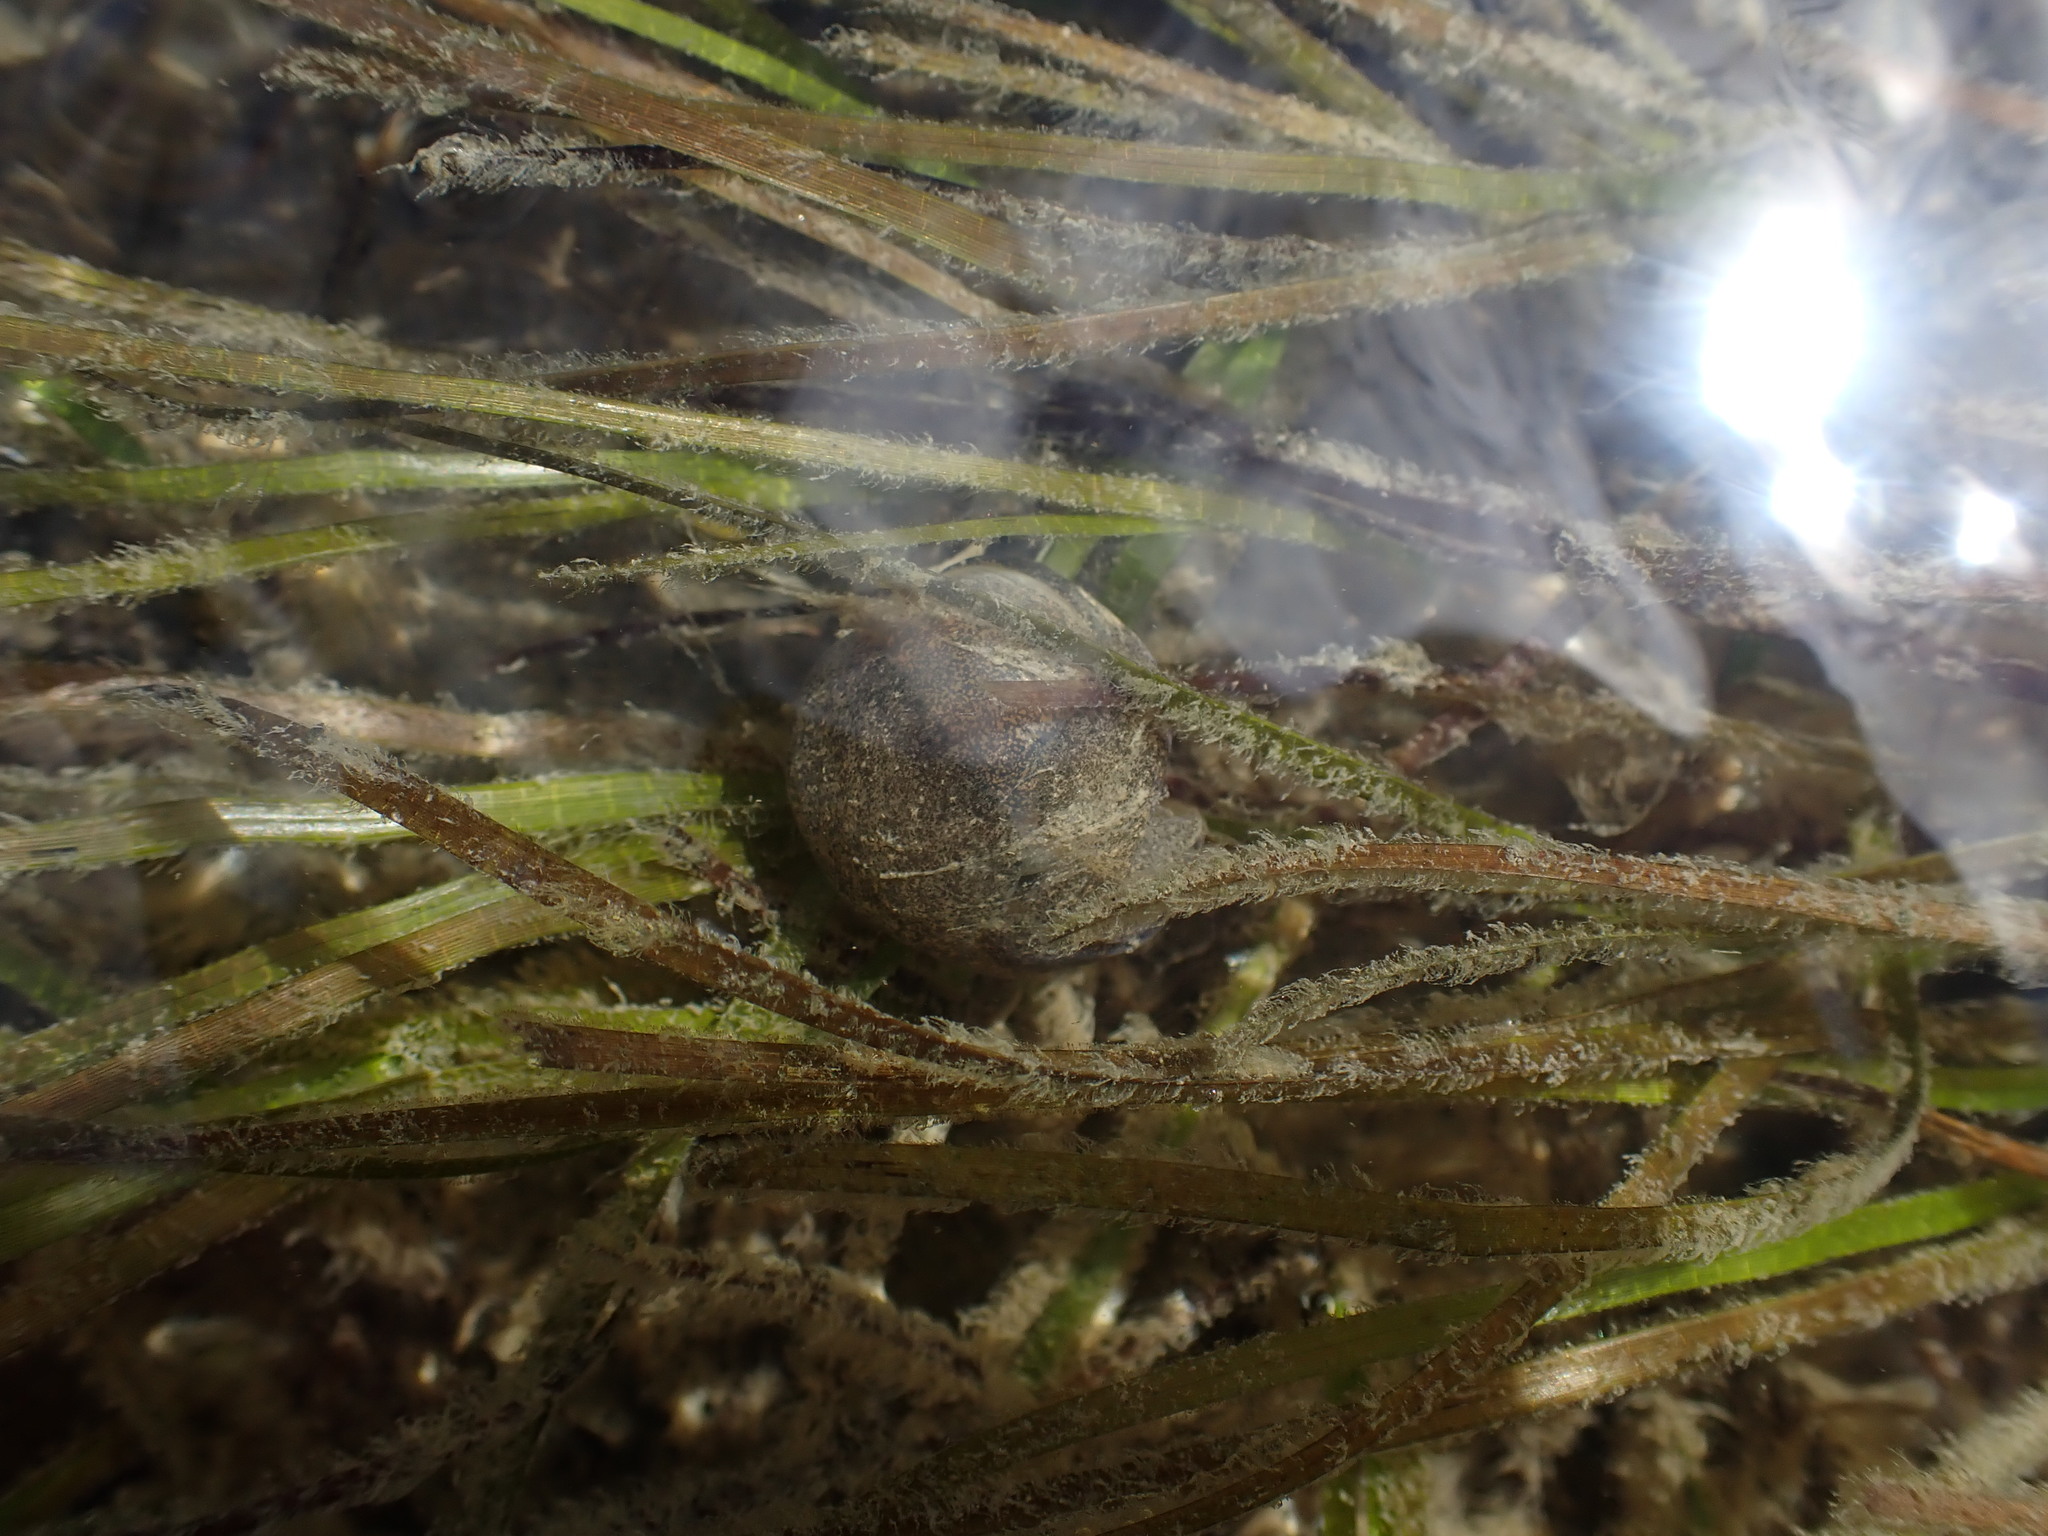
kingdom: Animalia
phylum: Mollusca
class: Gastropoda
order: Cephalaspidea
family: Haminoeidae
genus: Papawera
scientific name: Papawera zelandiae
